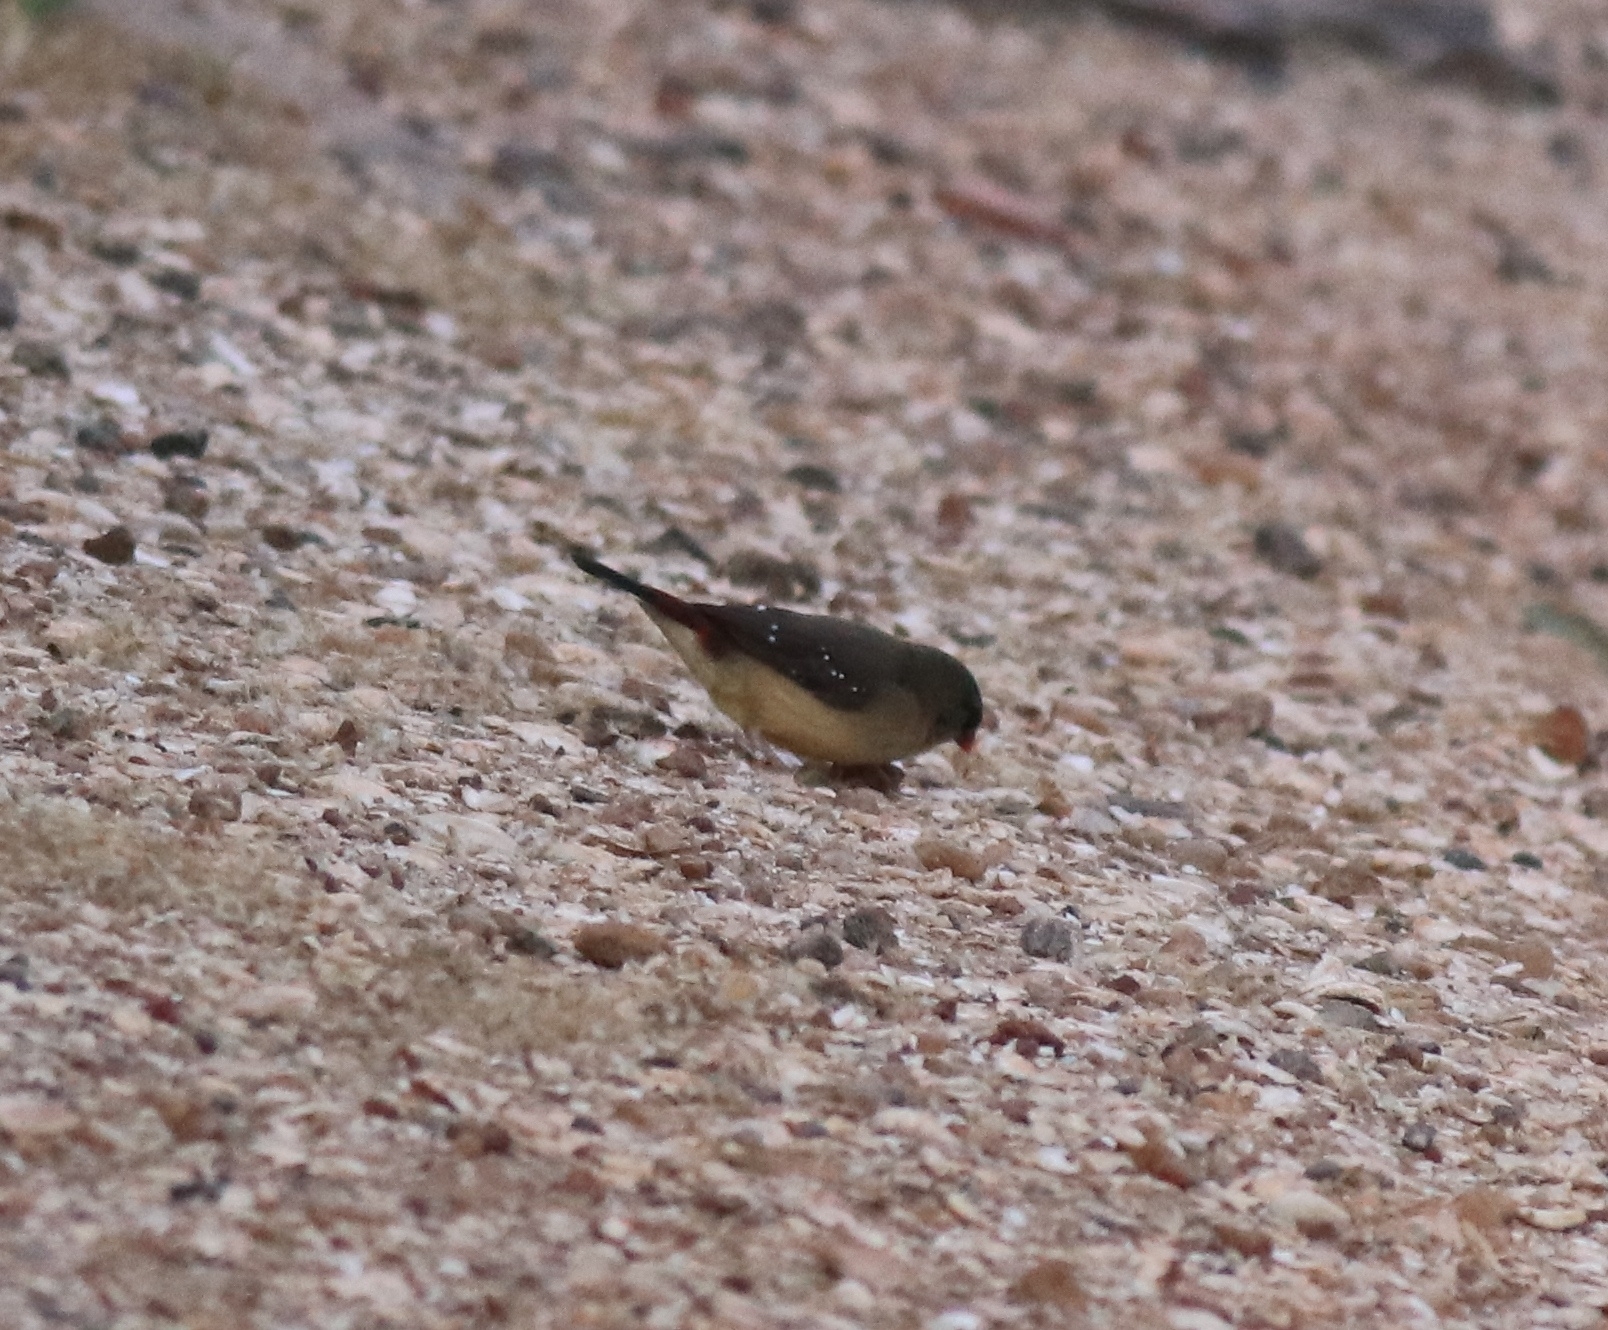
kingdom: Animalia
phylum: Chordata
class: Aves
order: Passeriformes
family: Estrildidae
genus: Amandava
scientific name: Amandava amandava
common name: Red avadavat
